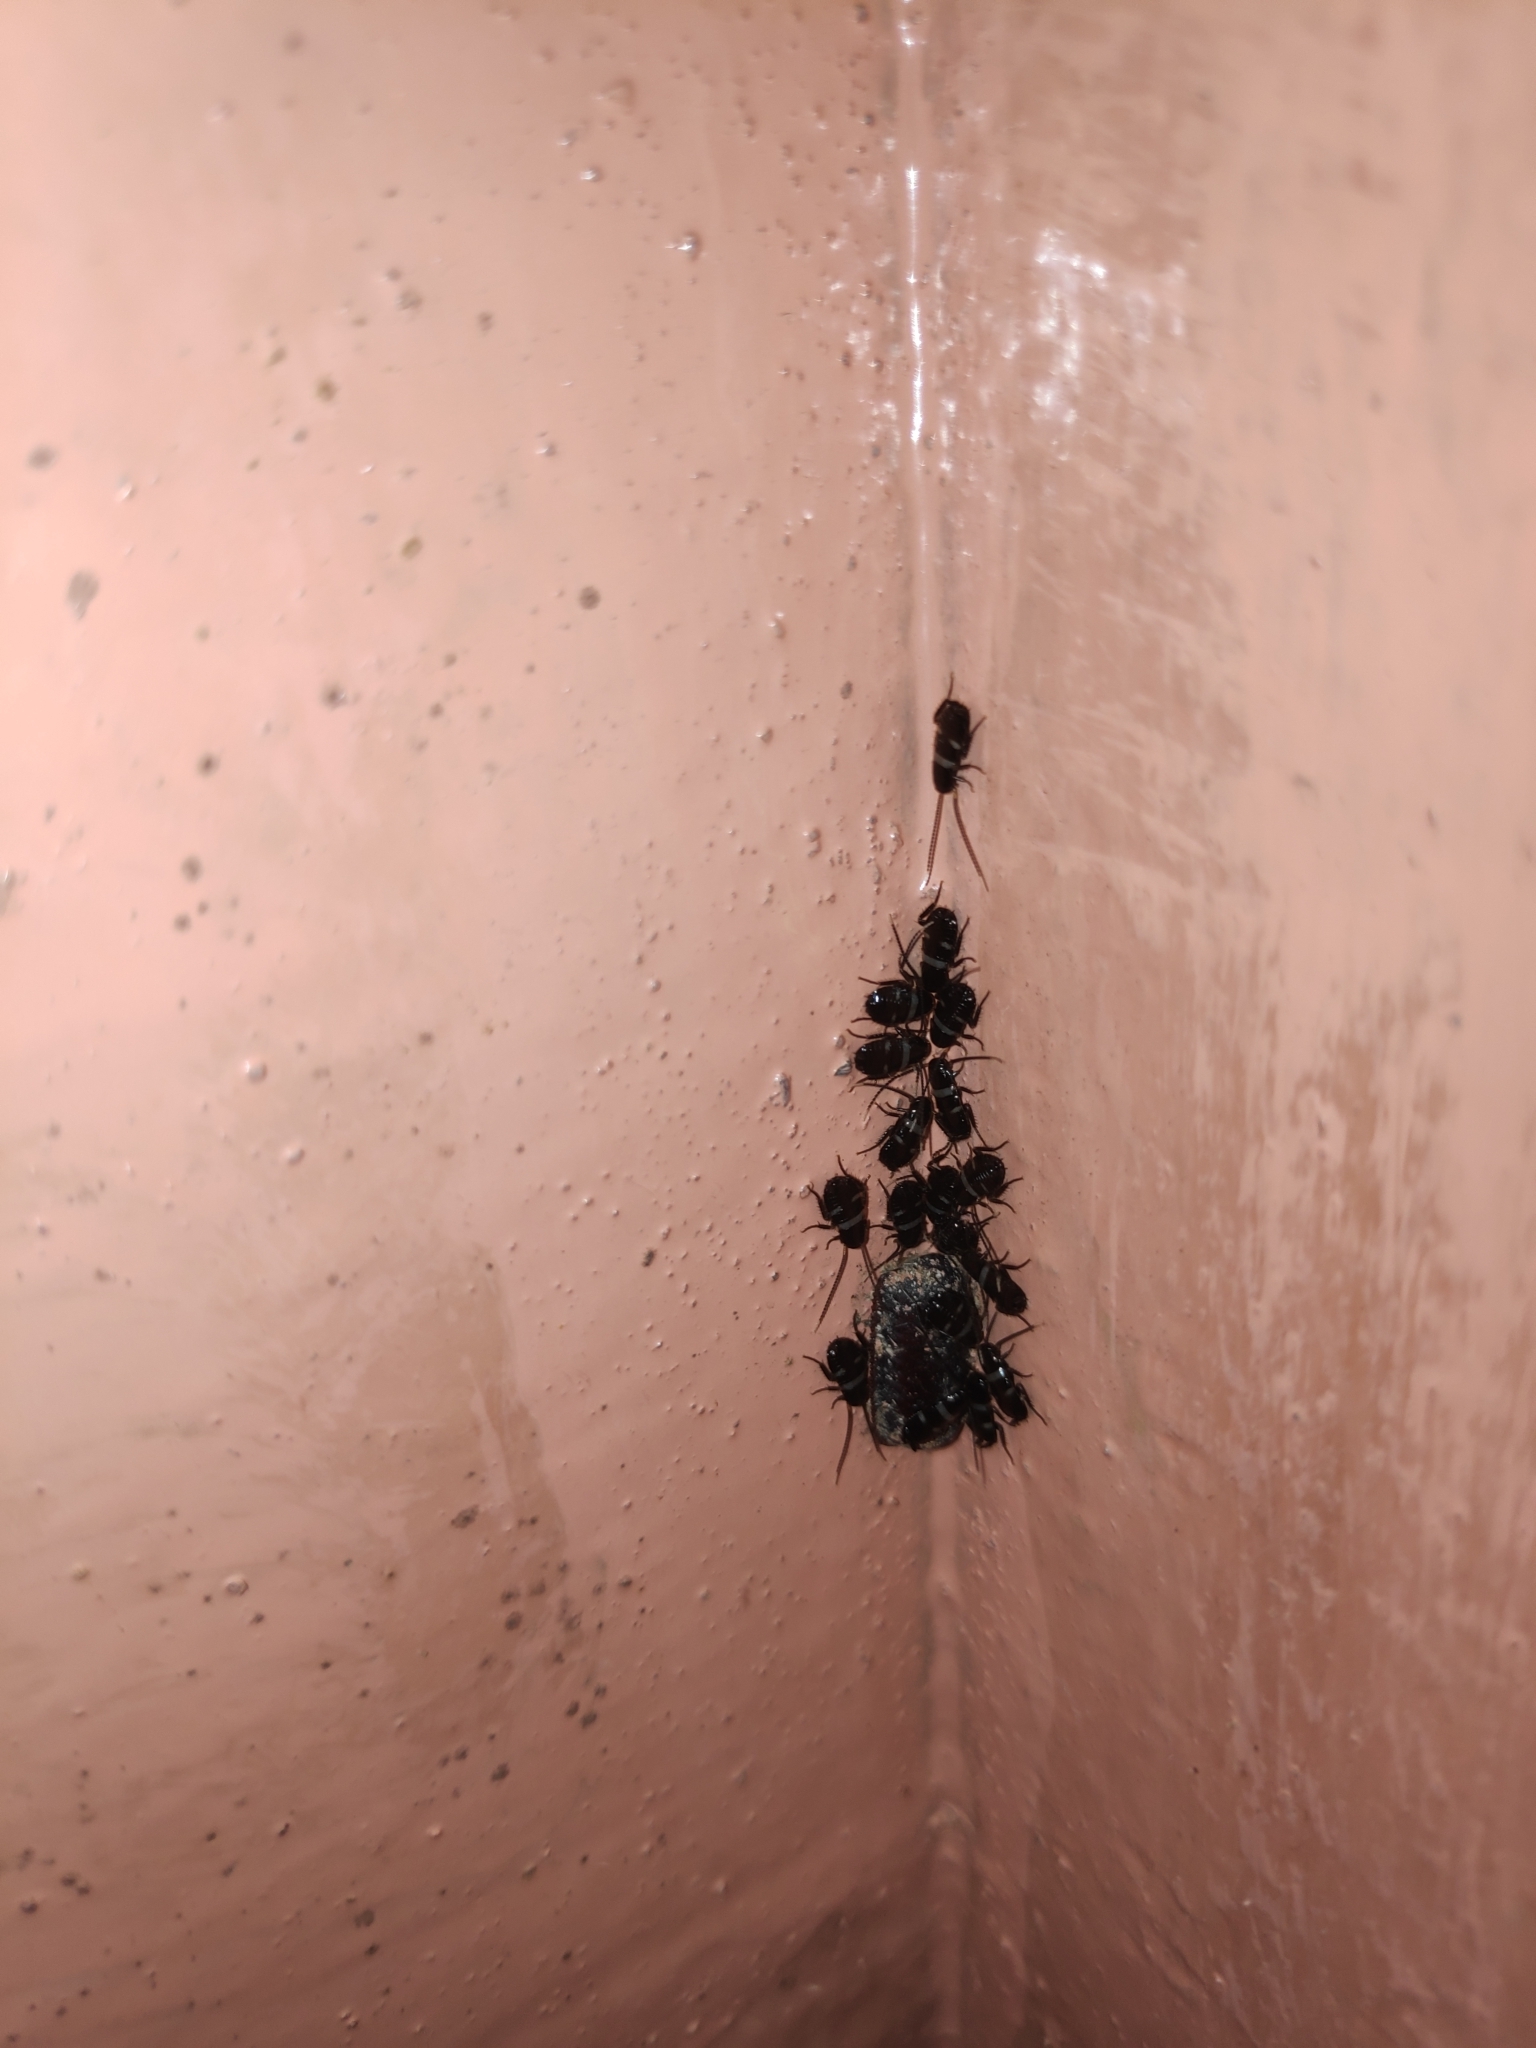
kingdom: Animalia
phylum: Arthropoda
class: Insecta
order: Blattodea
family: Blattidae
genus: Periplaneta
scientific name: Periplaneta australasiae
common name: Australian cockroach
